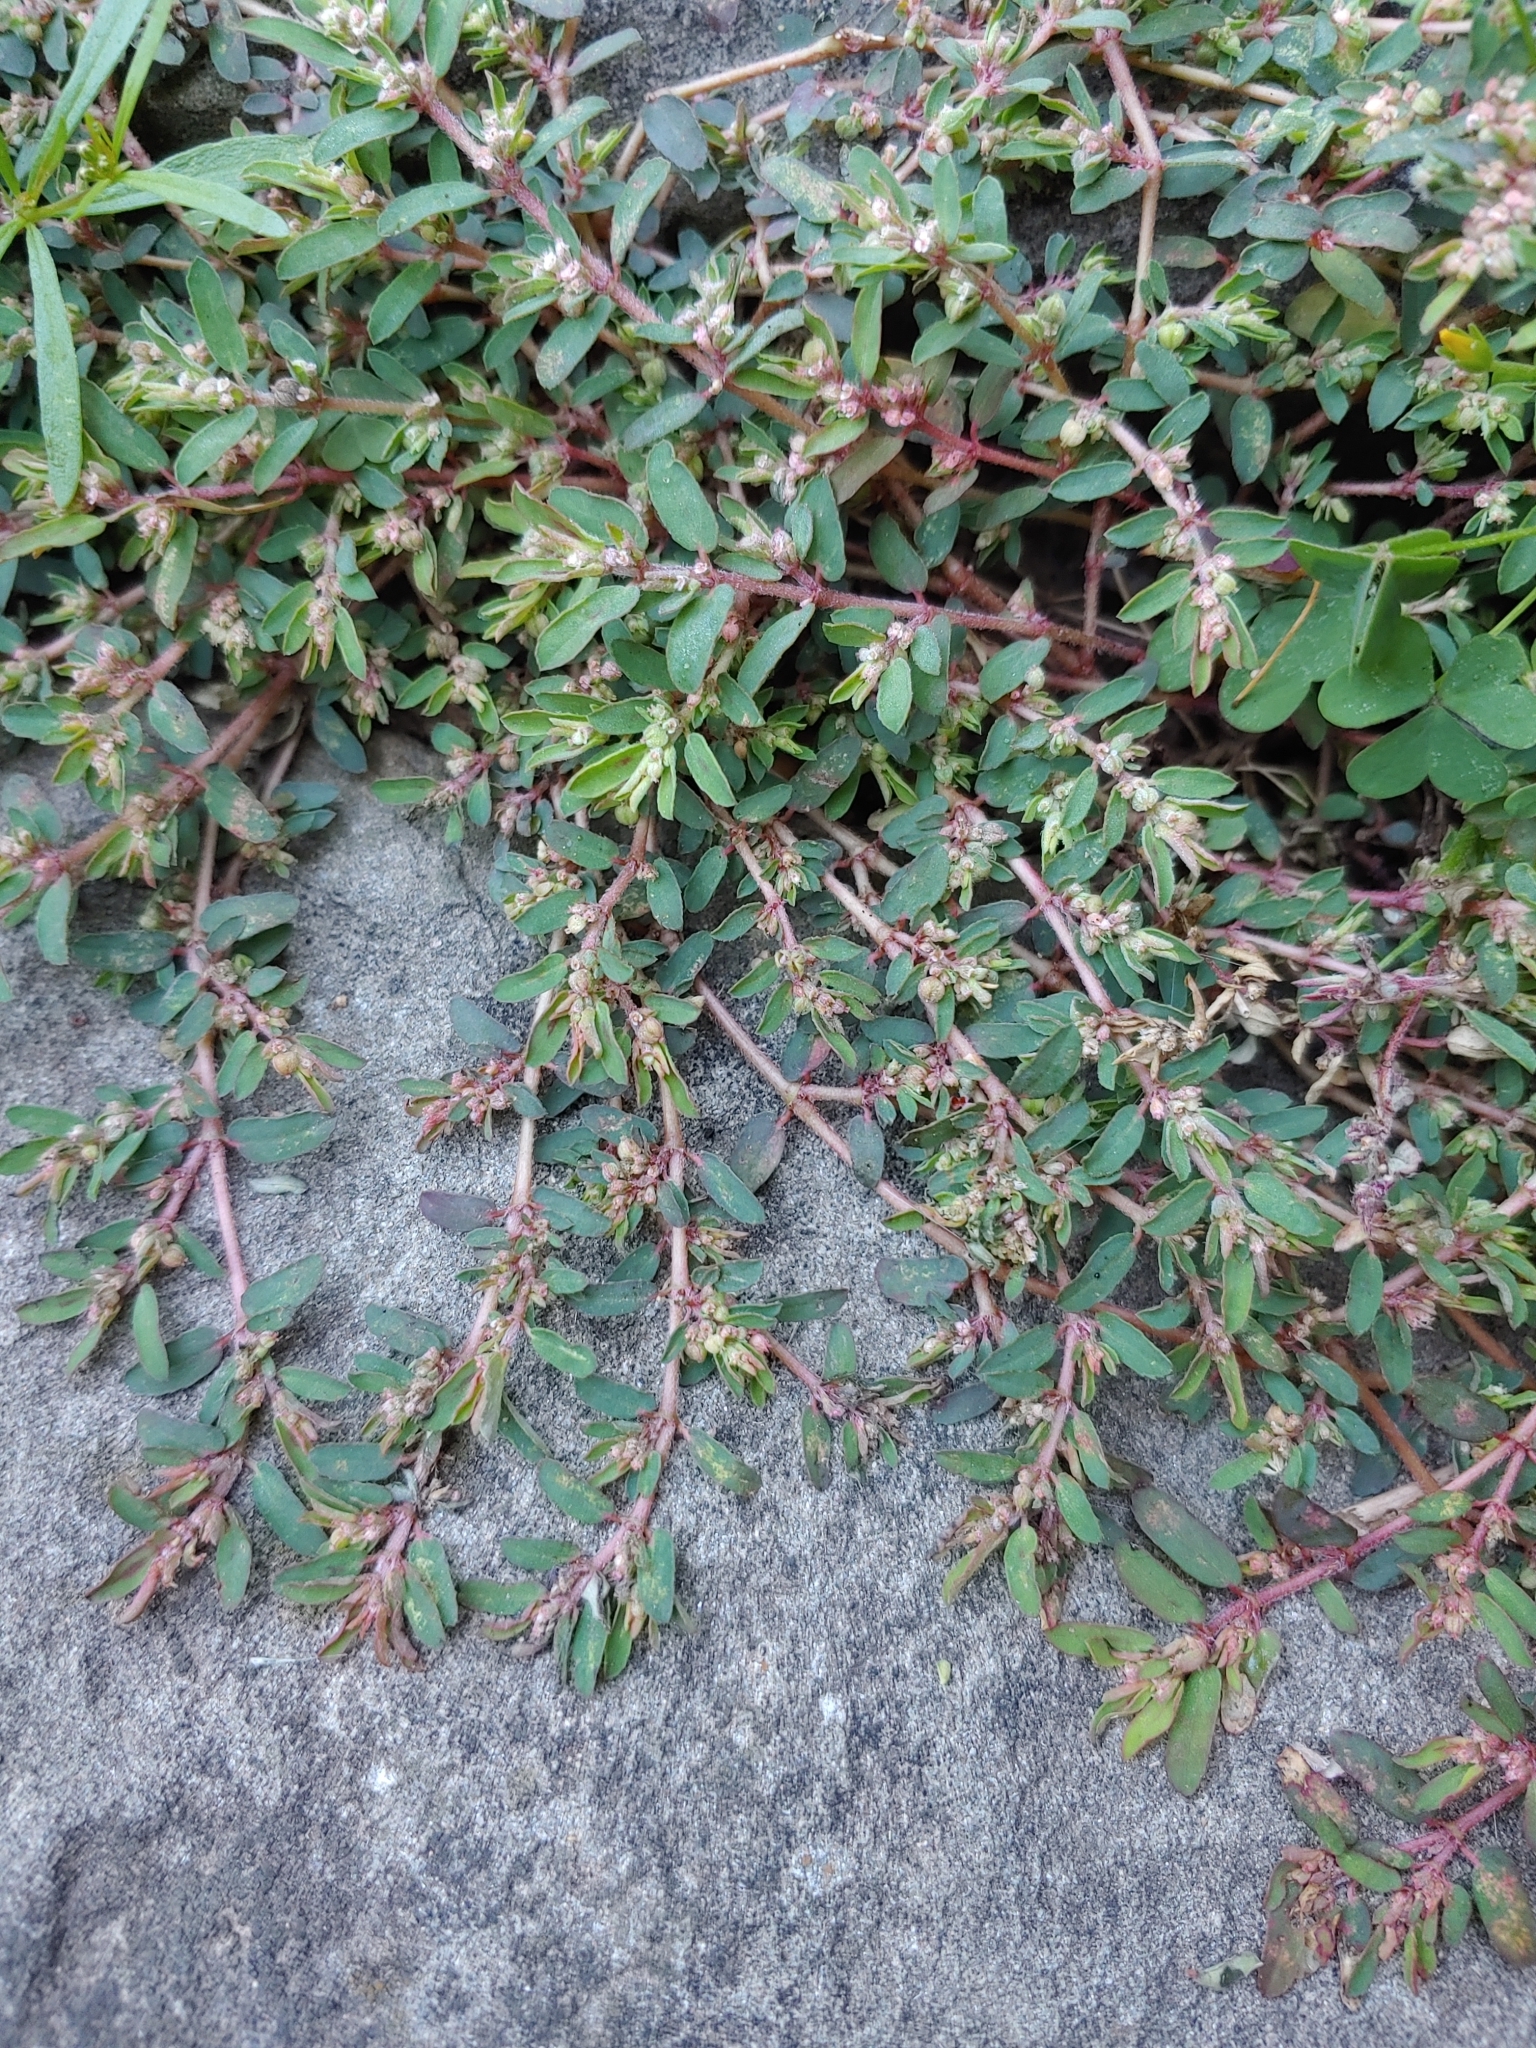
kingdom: Plantae
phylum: Tracheophyta
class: Magnoliopsida
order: Malpighiales
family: Euphorbiaceae
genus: Euphorbia
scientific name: Euphorbia maculata
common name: Spotted spurge
